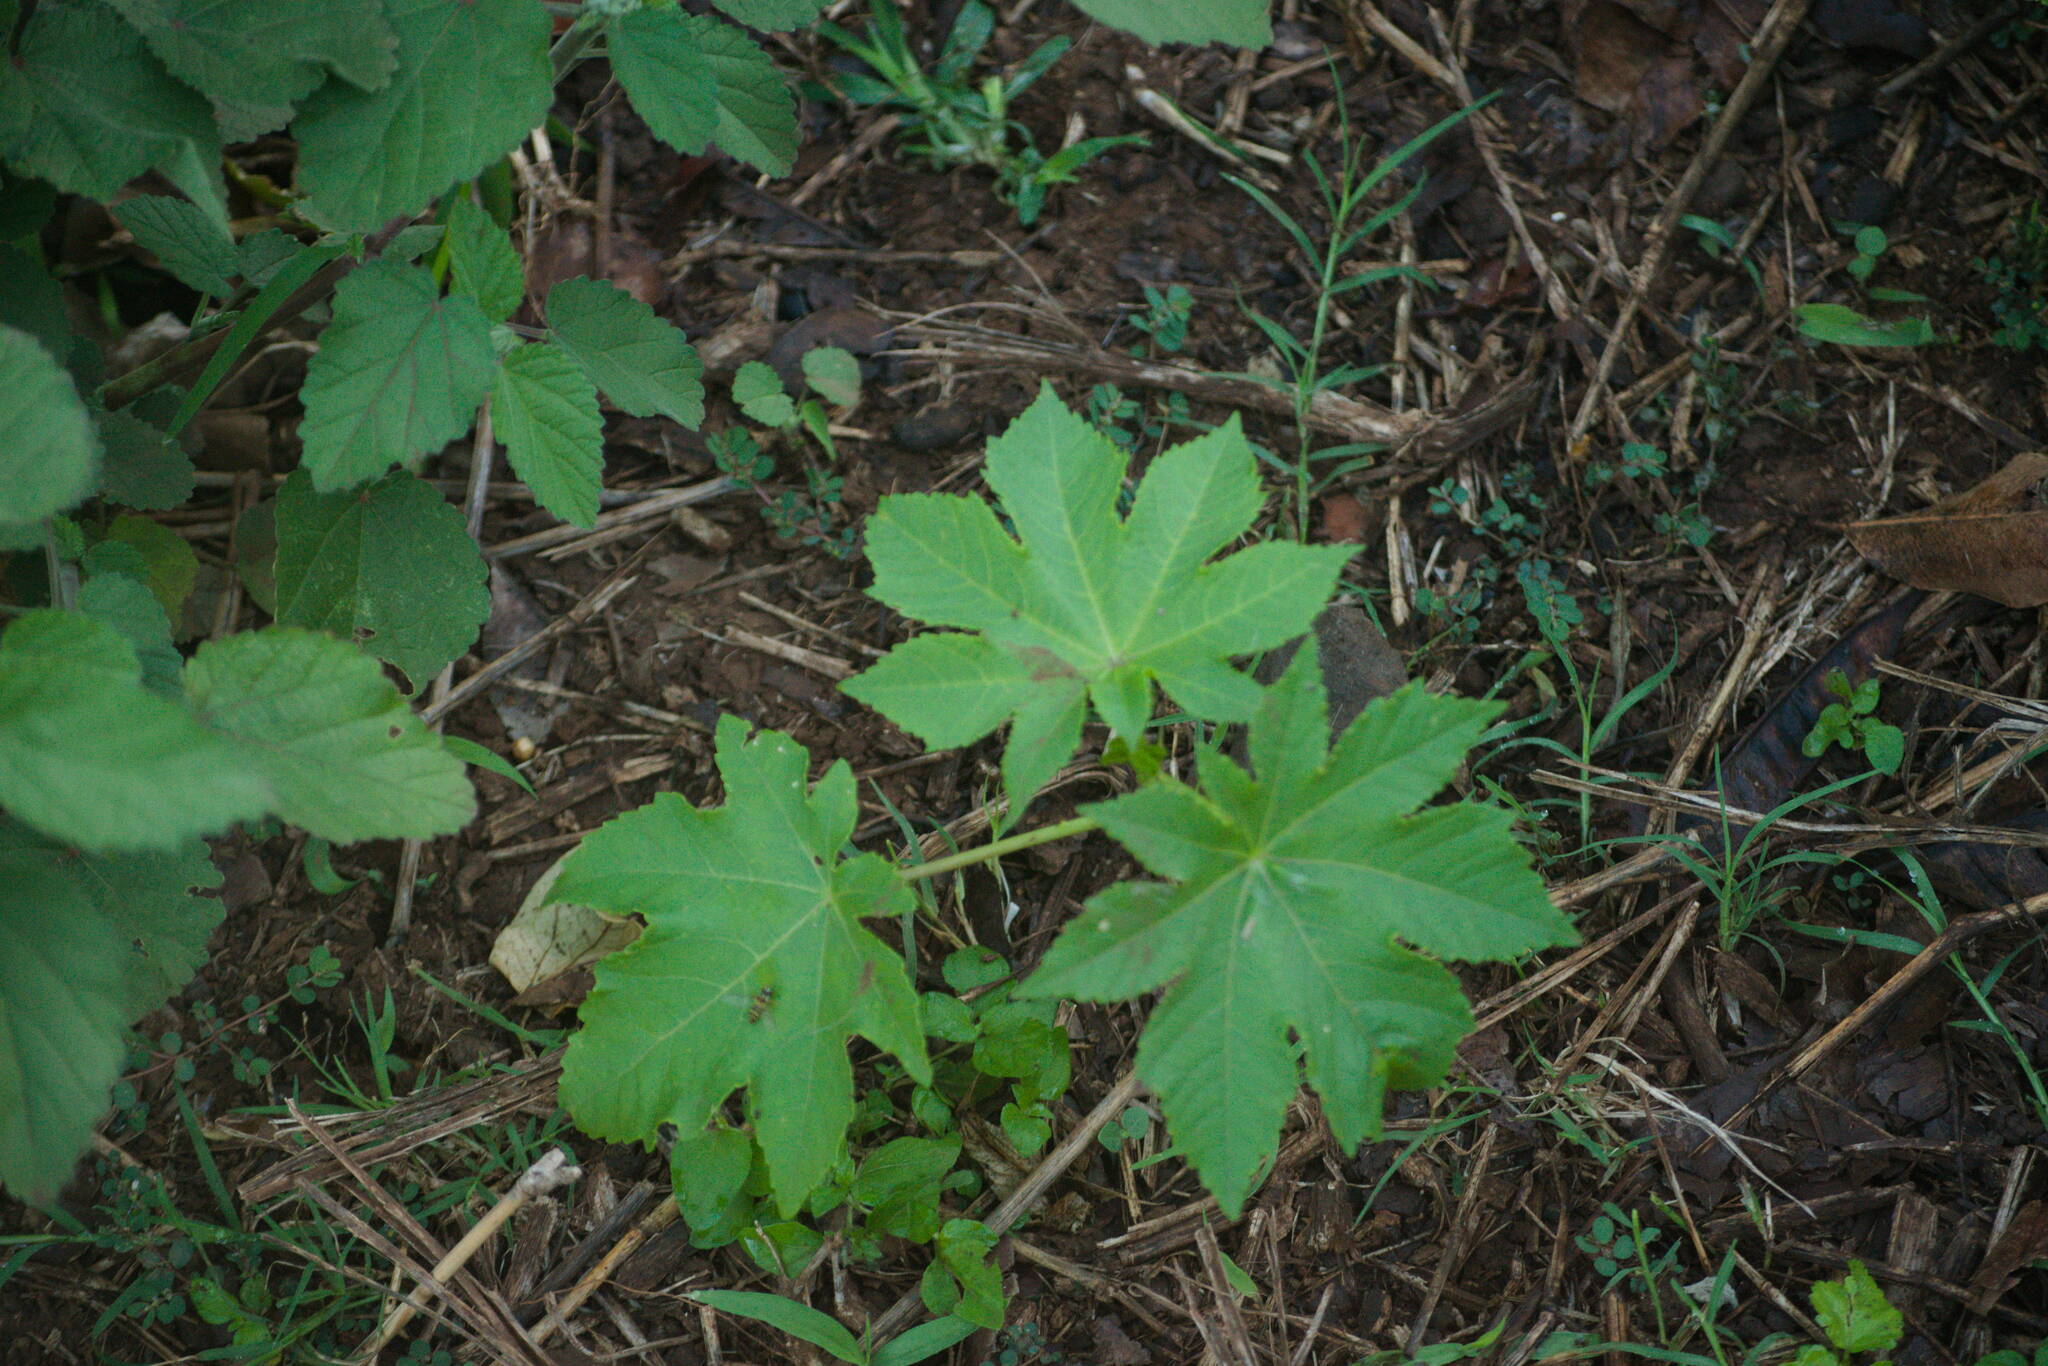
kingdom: Plantae
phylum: Tracheophyta
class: Magnoliopsida
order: Malpighiales
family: Euphorbiaceae
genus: Ricinus
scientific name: Ricinus communis
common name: Castor-oil-plant
